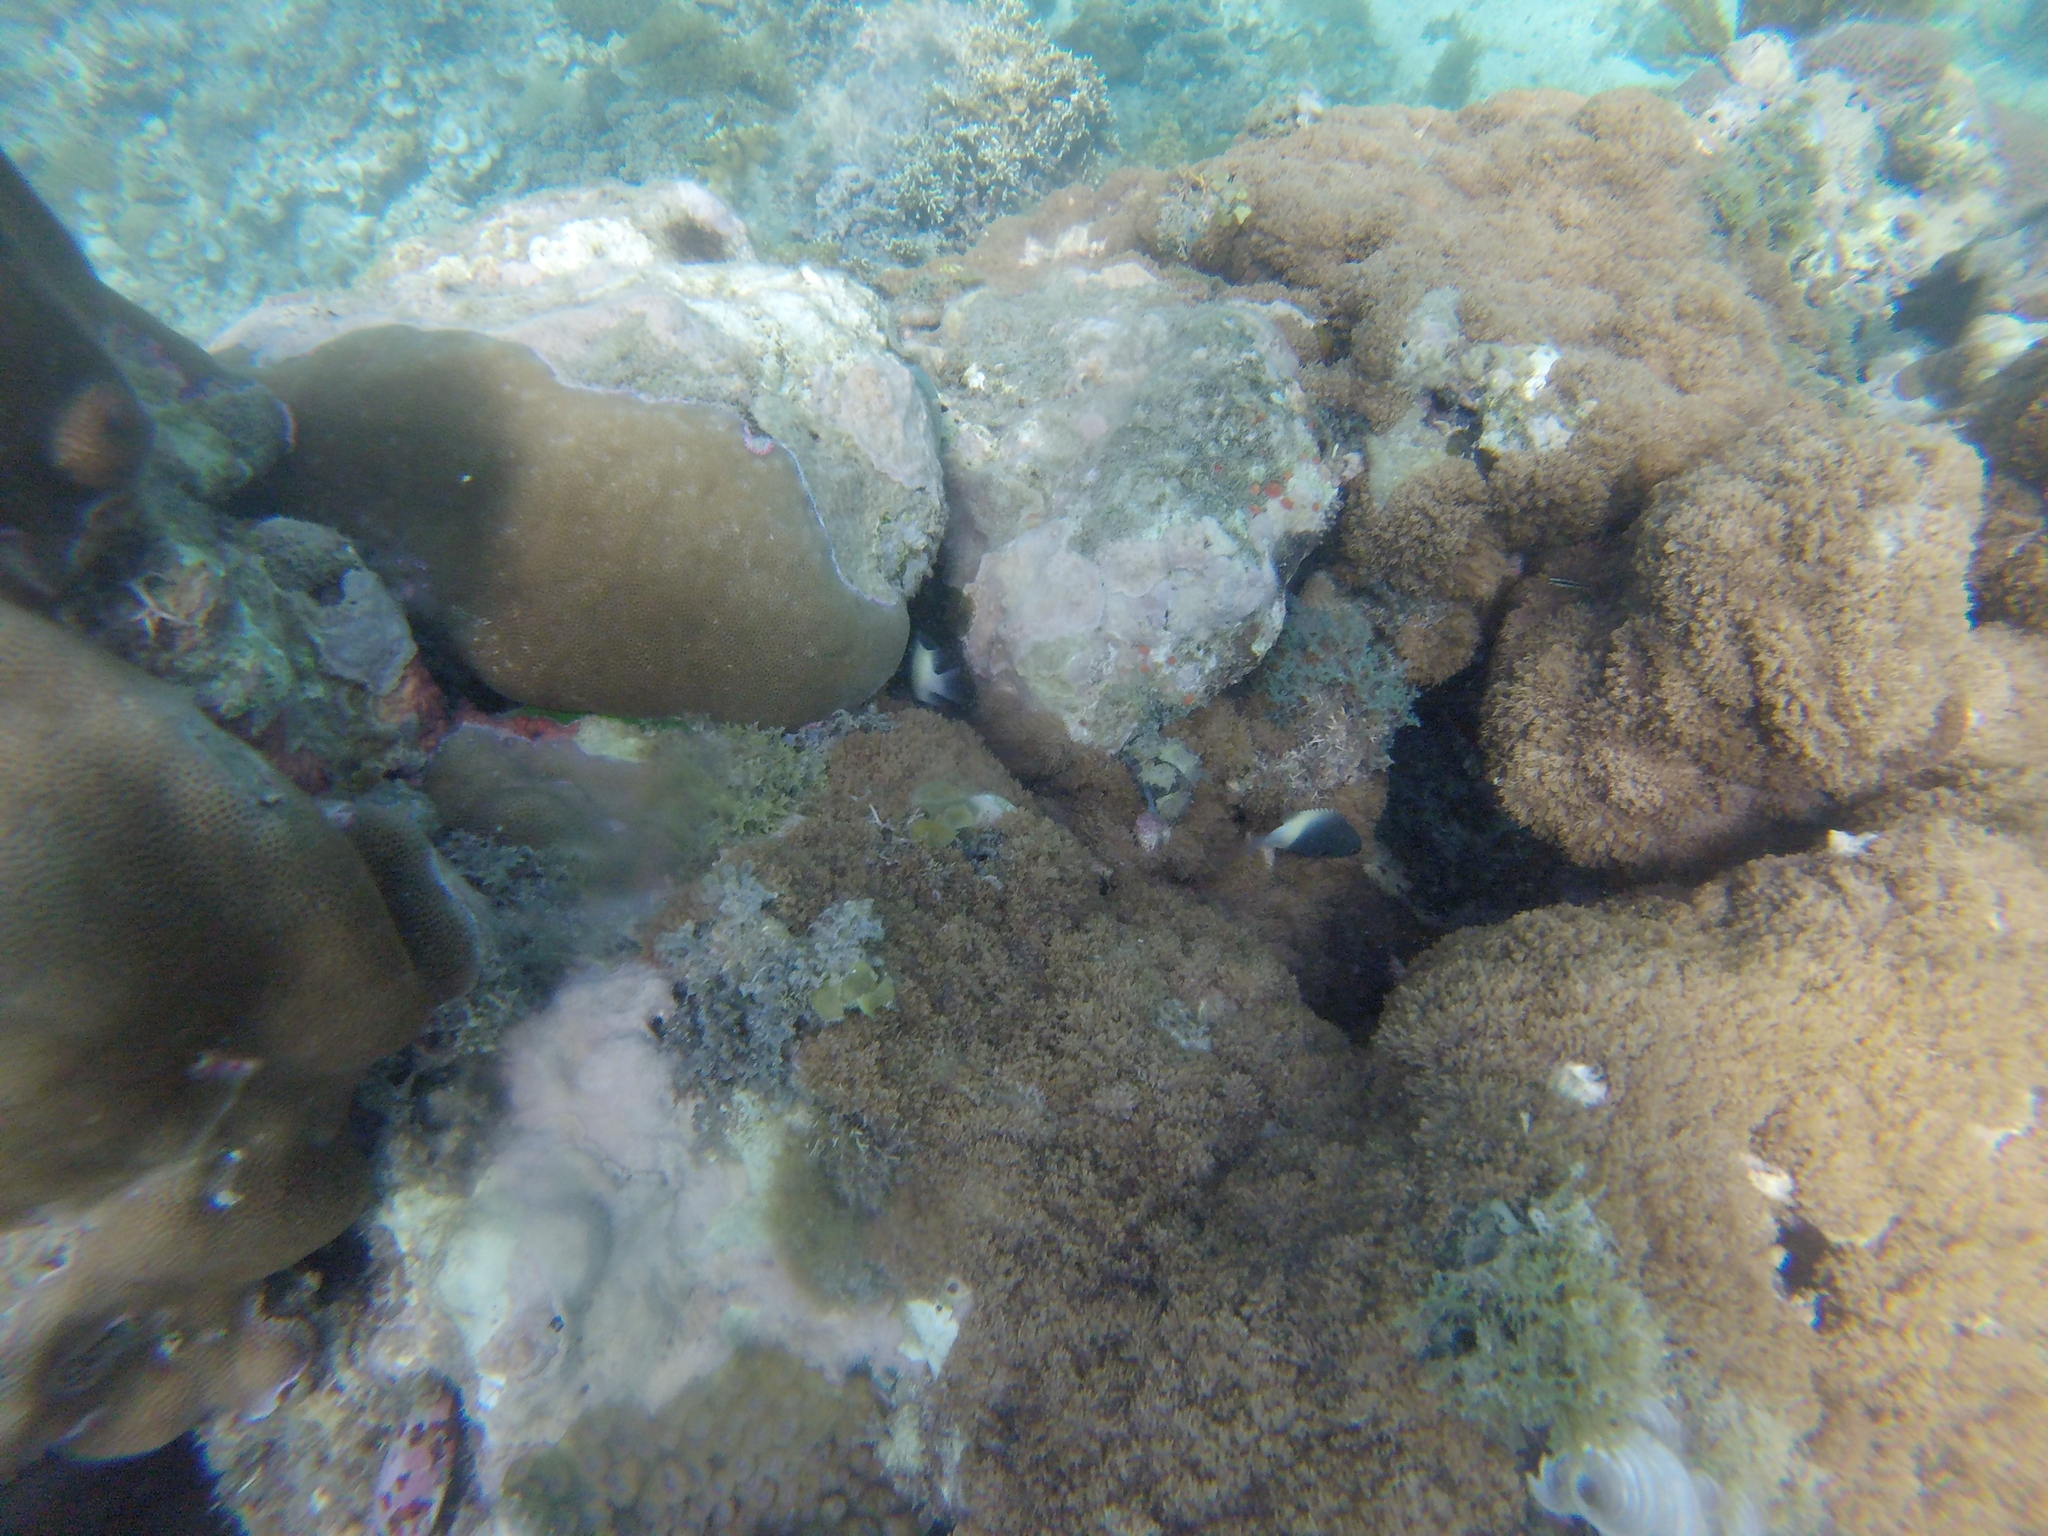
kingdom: Animalia
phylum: Chordata
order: Perciformes
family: Pomacentridae
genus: Chromis
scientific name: Chromis fieldi
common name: Chocolatedip chromis
